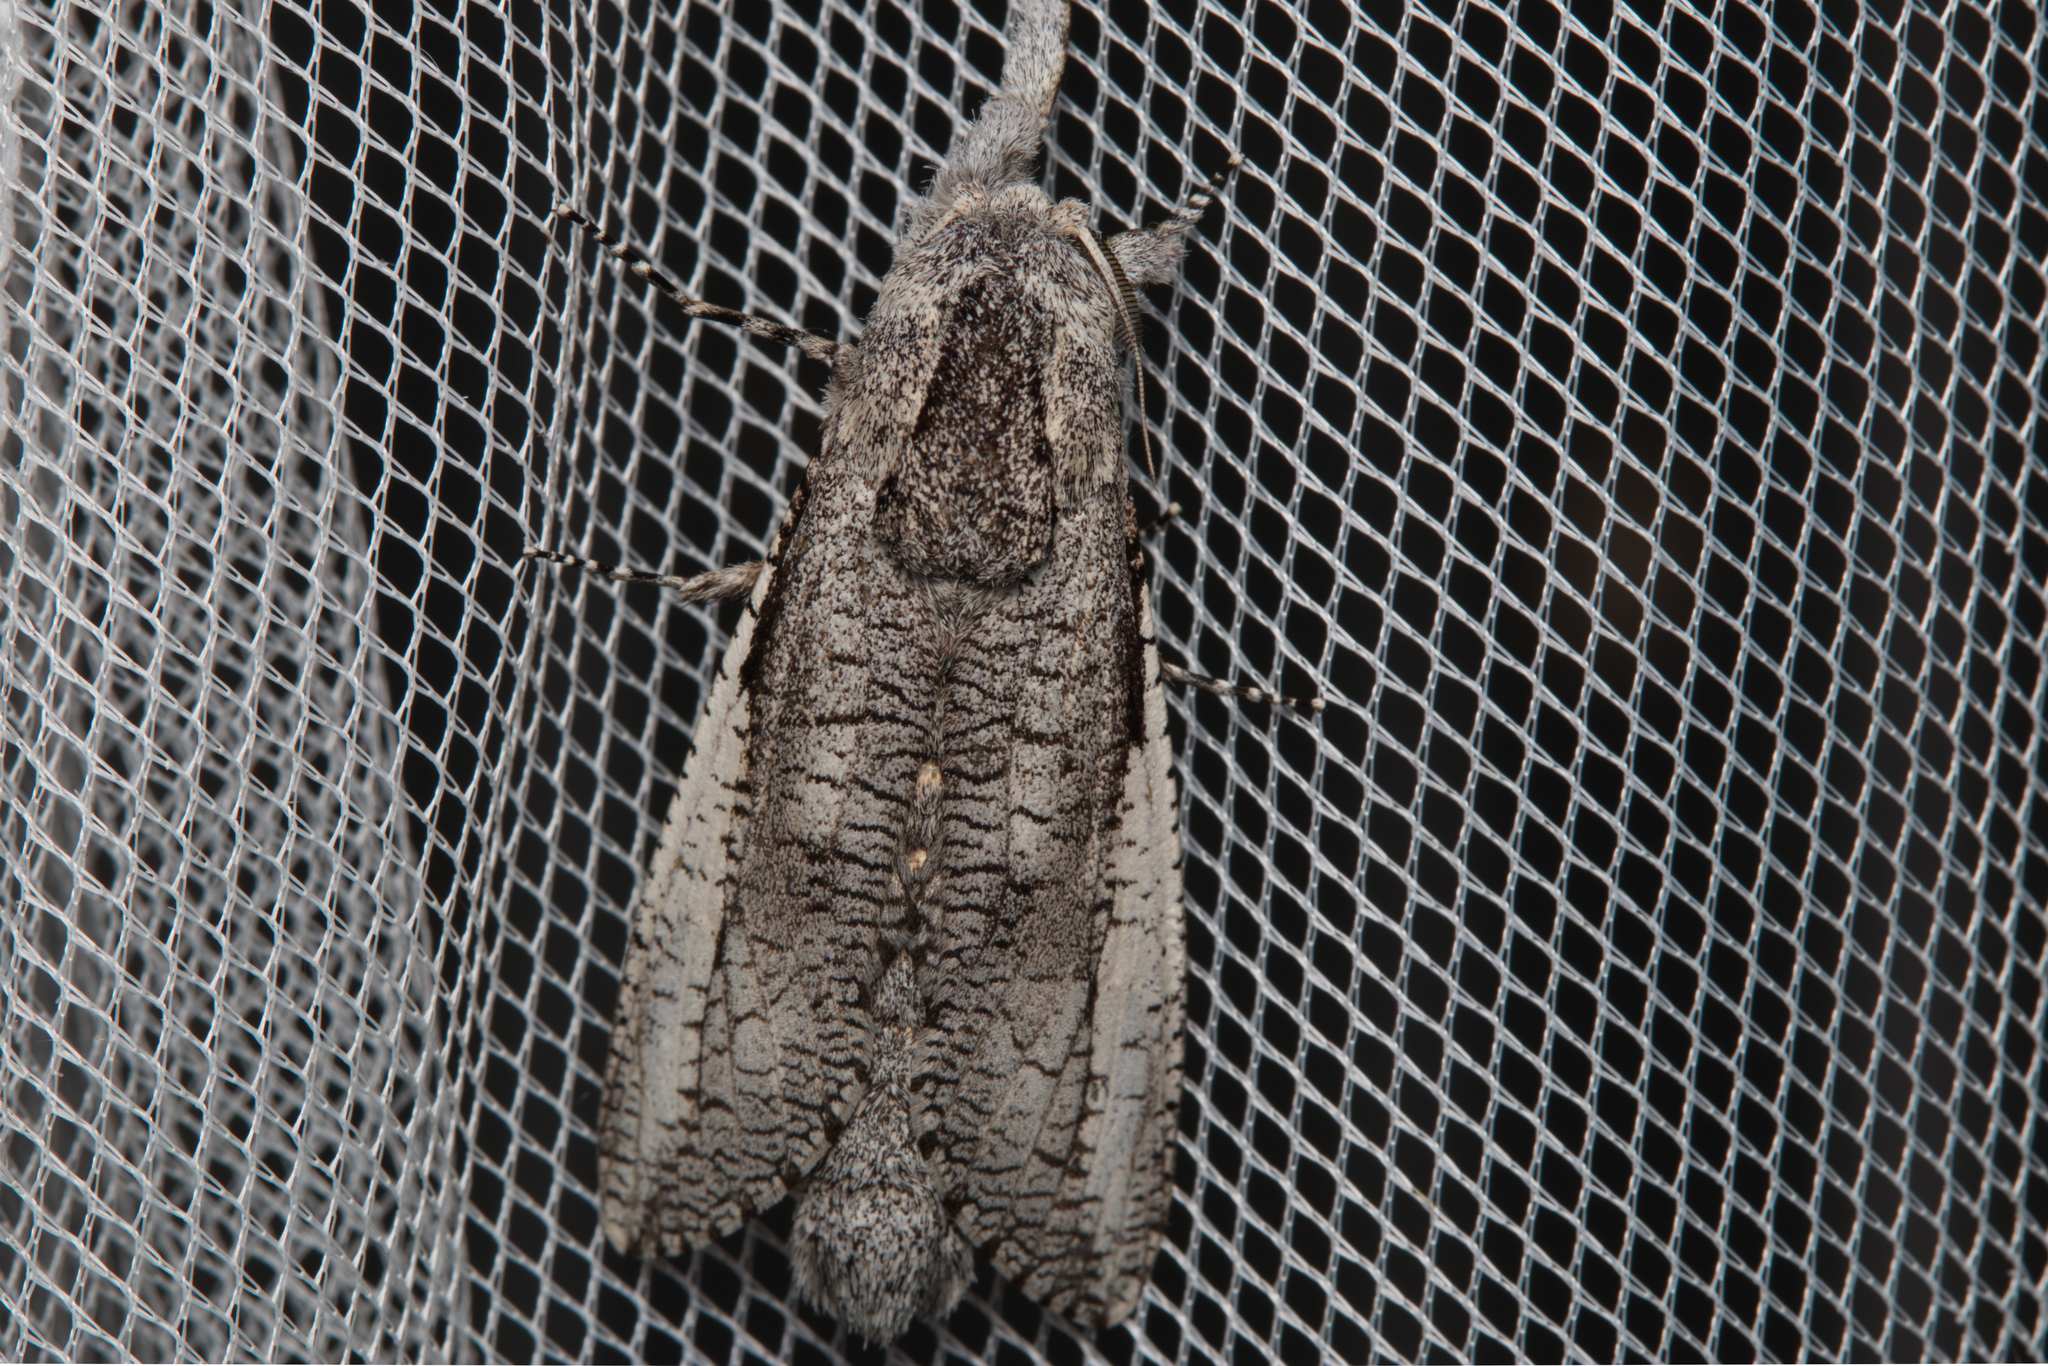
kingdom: Animalia
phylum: Arthropoda
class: Insecta
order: Lepidoptera
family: Cossidae
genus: Endoxyla
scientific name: Endoxyla secta
